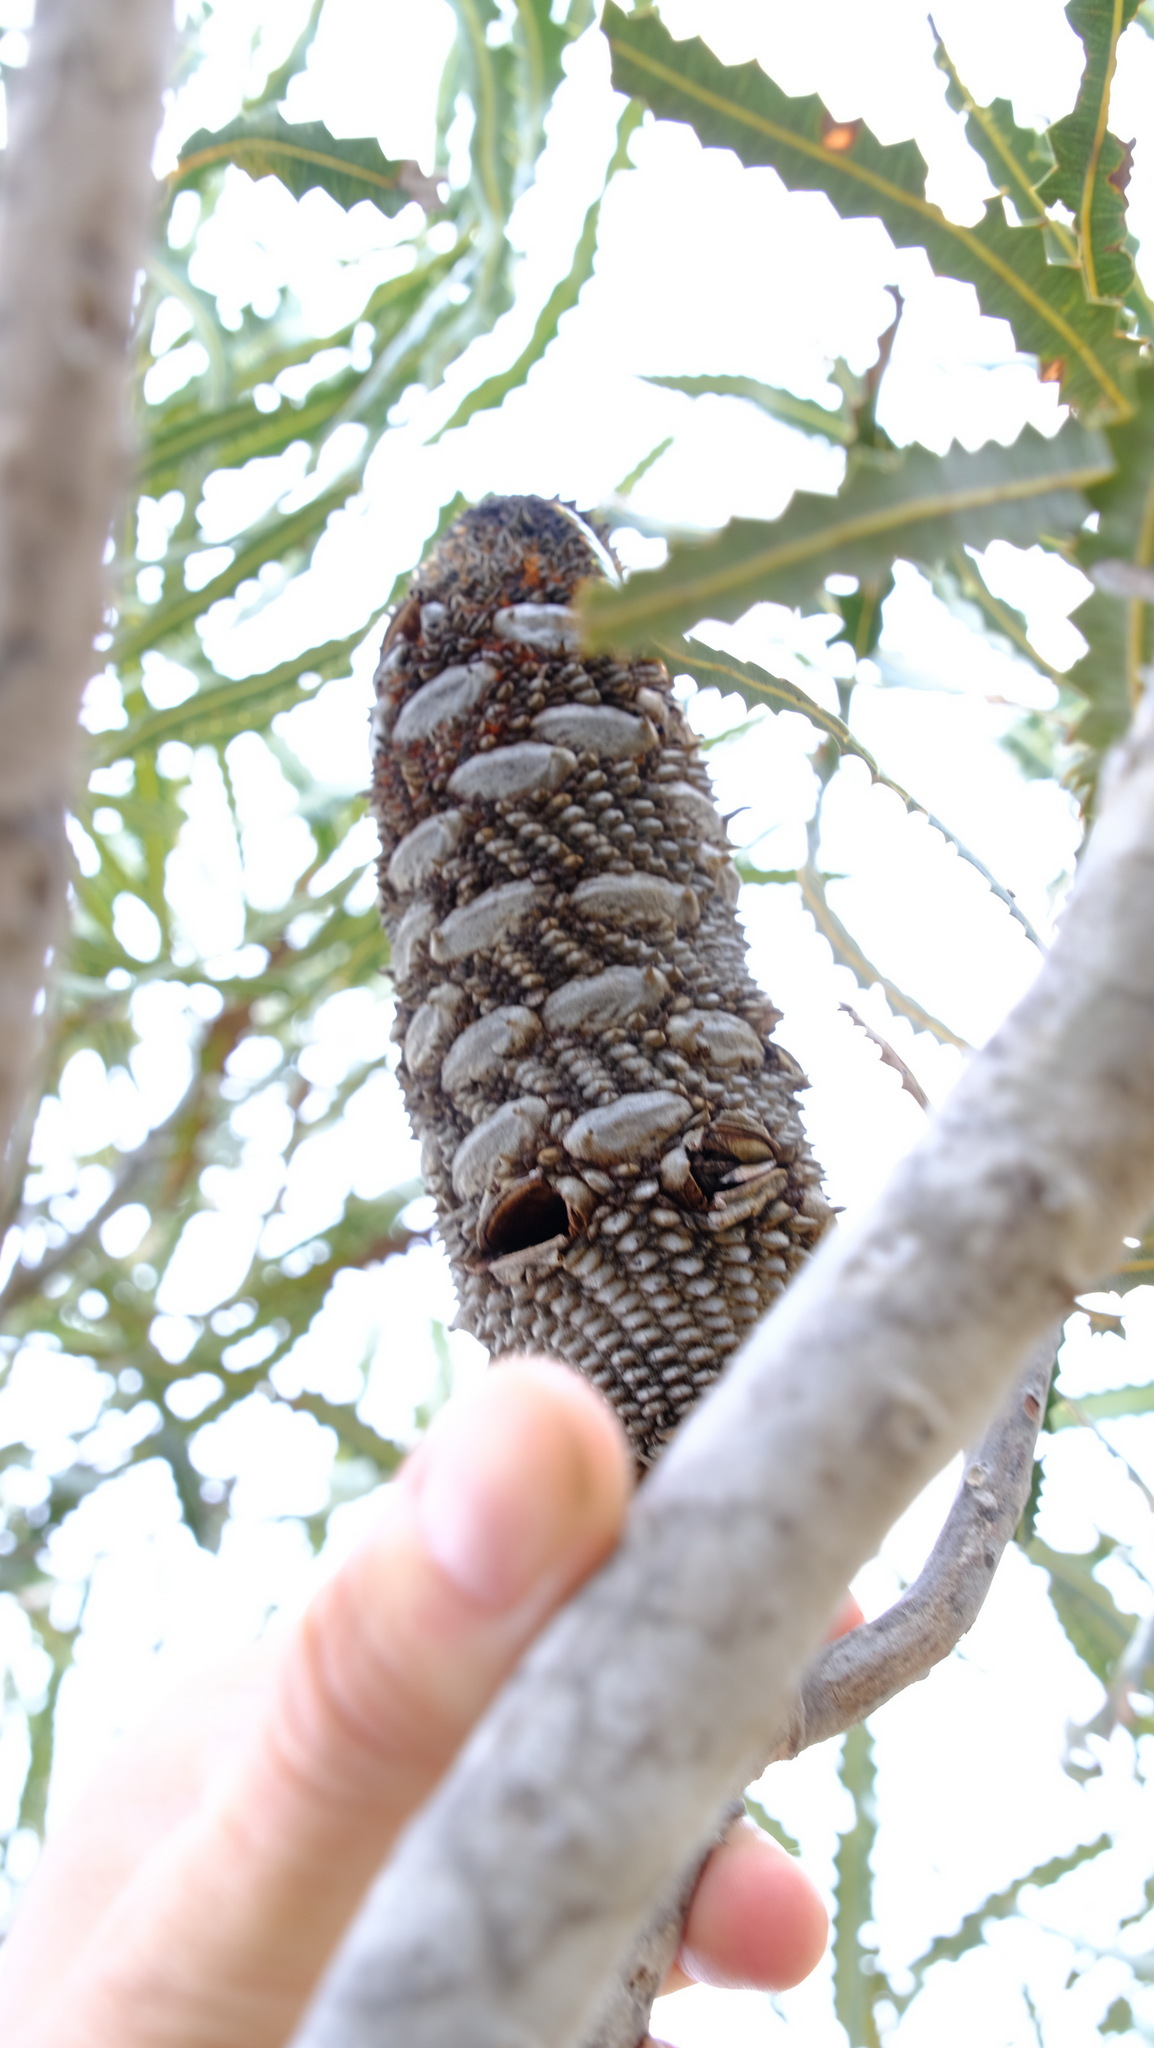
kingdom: Plantae
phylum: Tracheophyta
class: Magnoliopsida
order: Proteales
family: Proteaceae
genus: Banksia
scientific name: Banksia prionotes
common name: Acorn banksia
